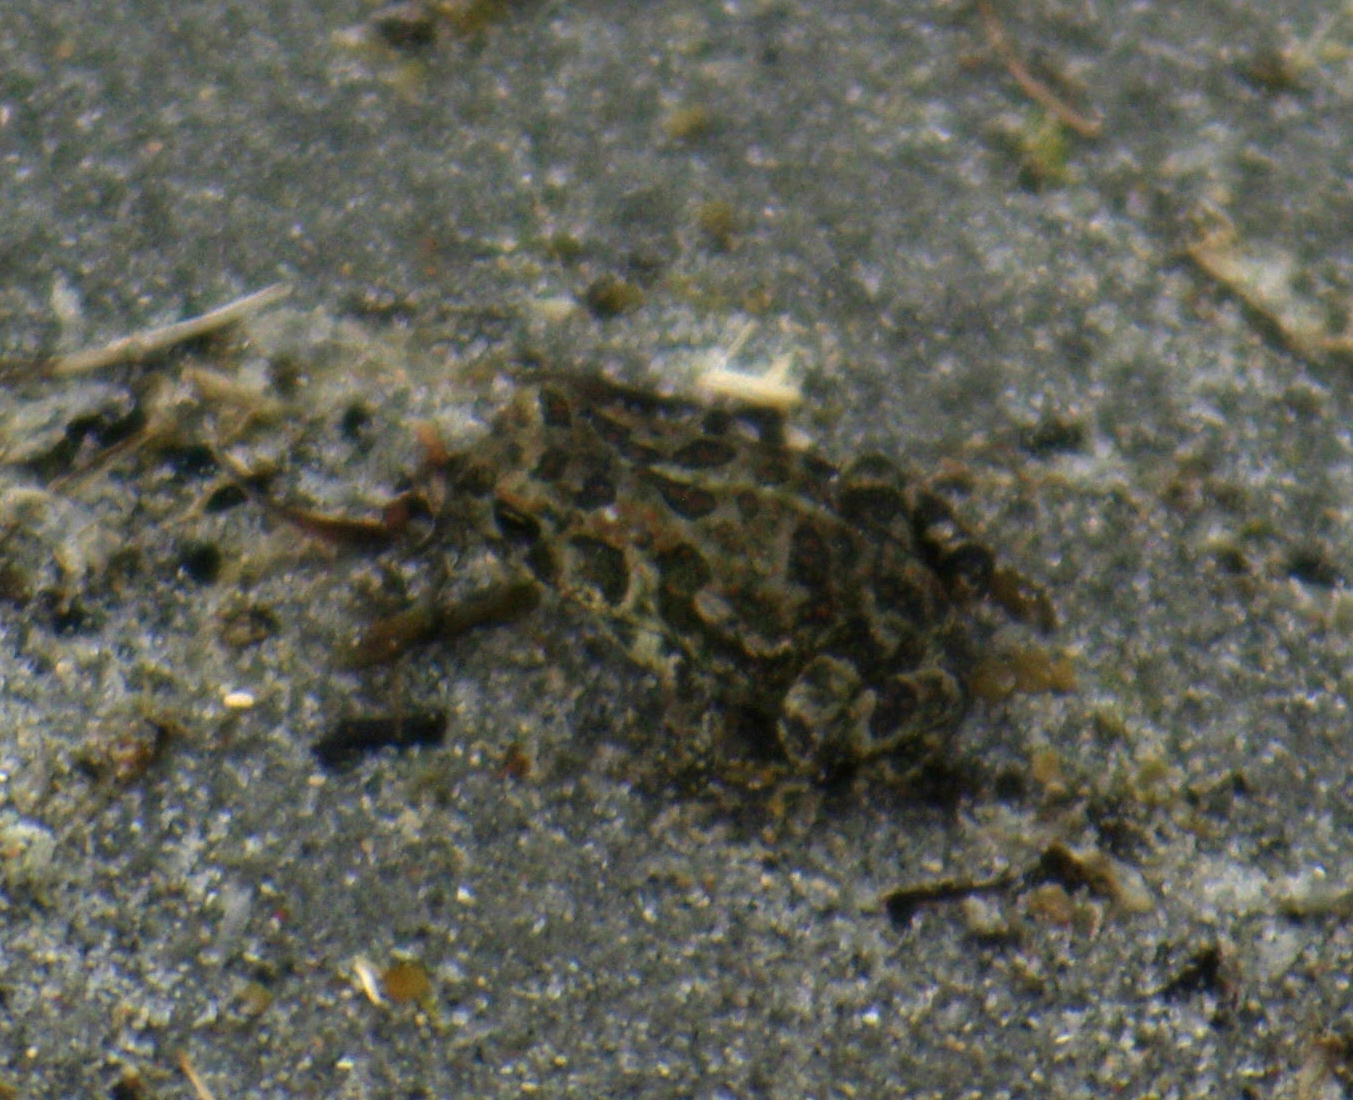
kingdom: Animalia
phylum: Chordata
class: Amphibia
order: Anura
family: Bufonidae
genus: Anaxyrus
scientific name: Anaxyrus hemiophrys
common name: Canadian toad
